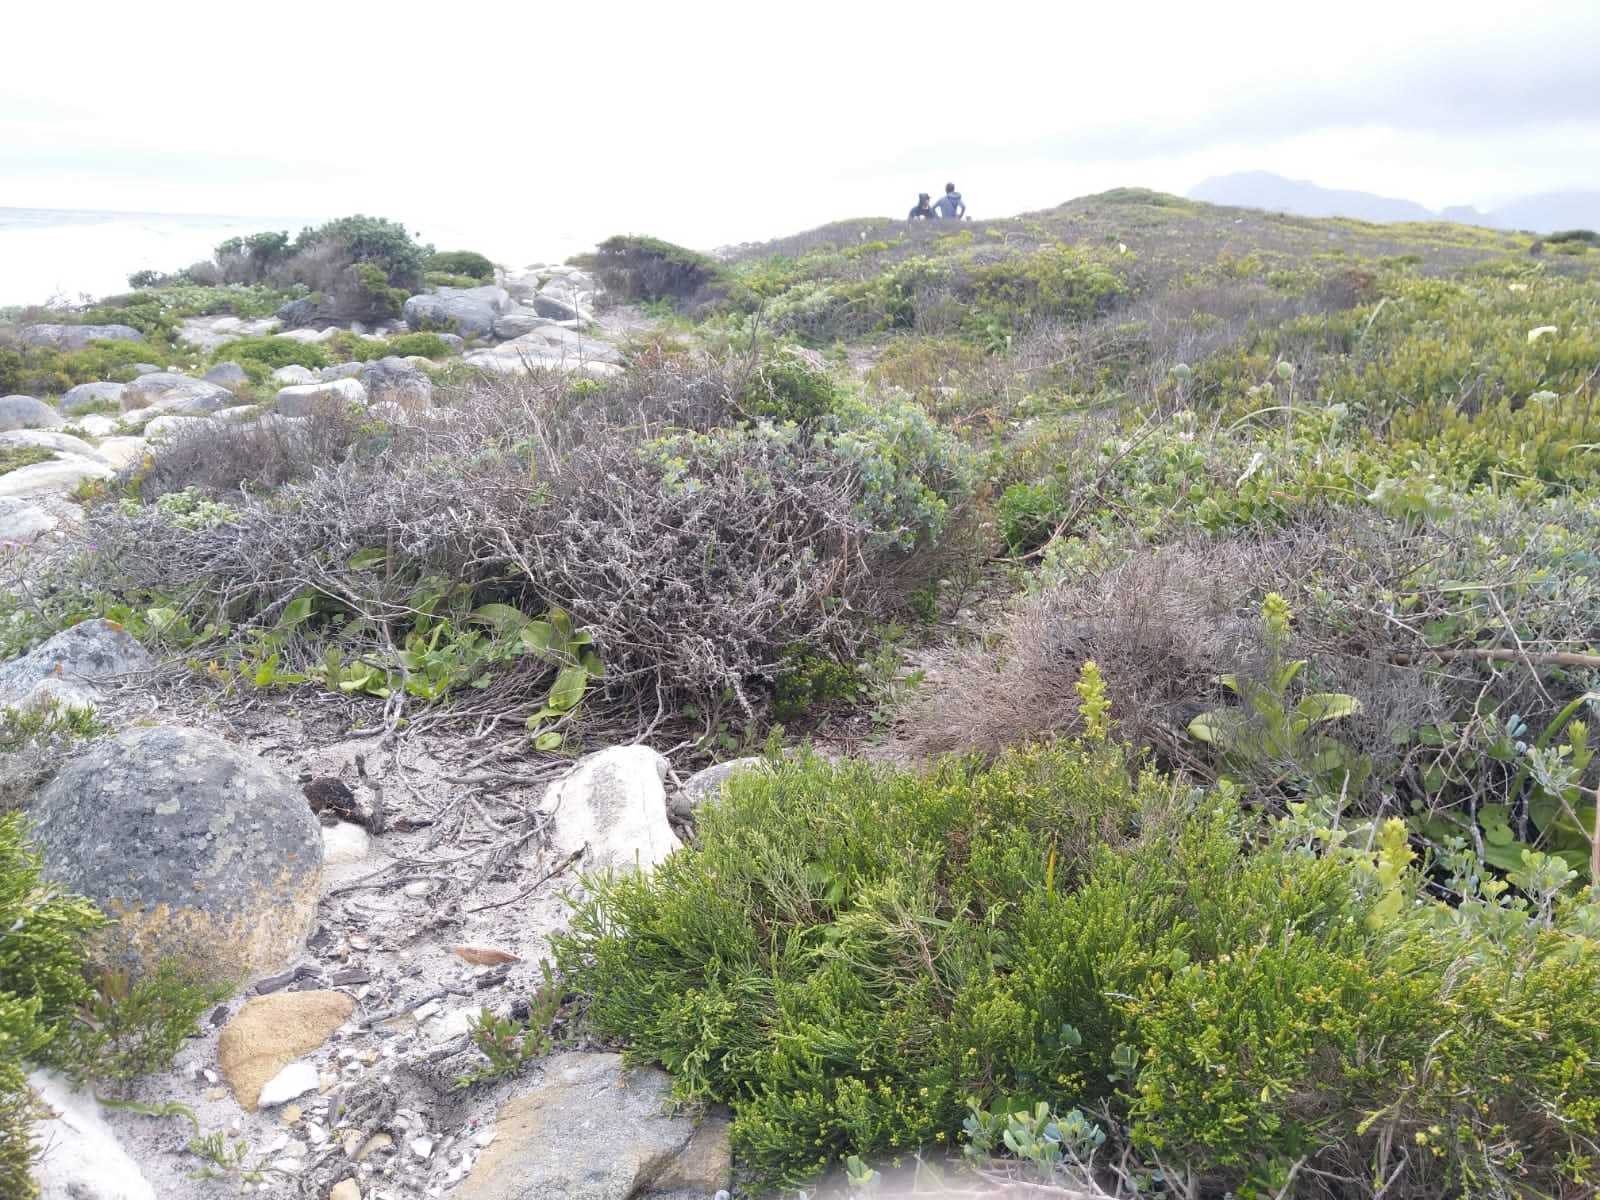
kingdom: Plantae
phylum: Tracheophyta
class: Liliopsida
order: Asparagales
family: Orchidaceae
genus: Satyrium
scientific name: Satyrium odorum
